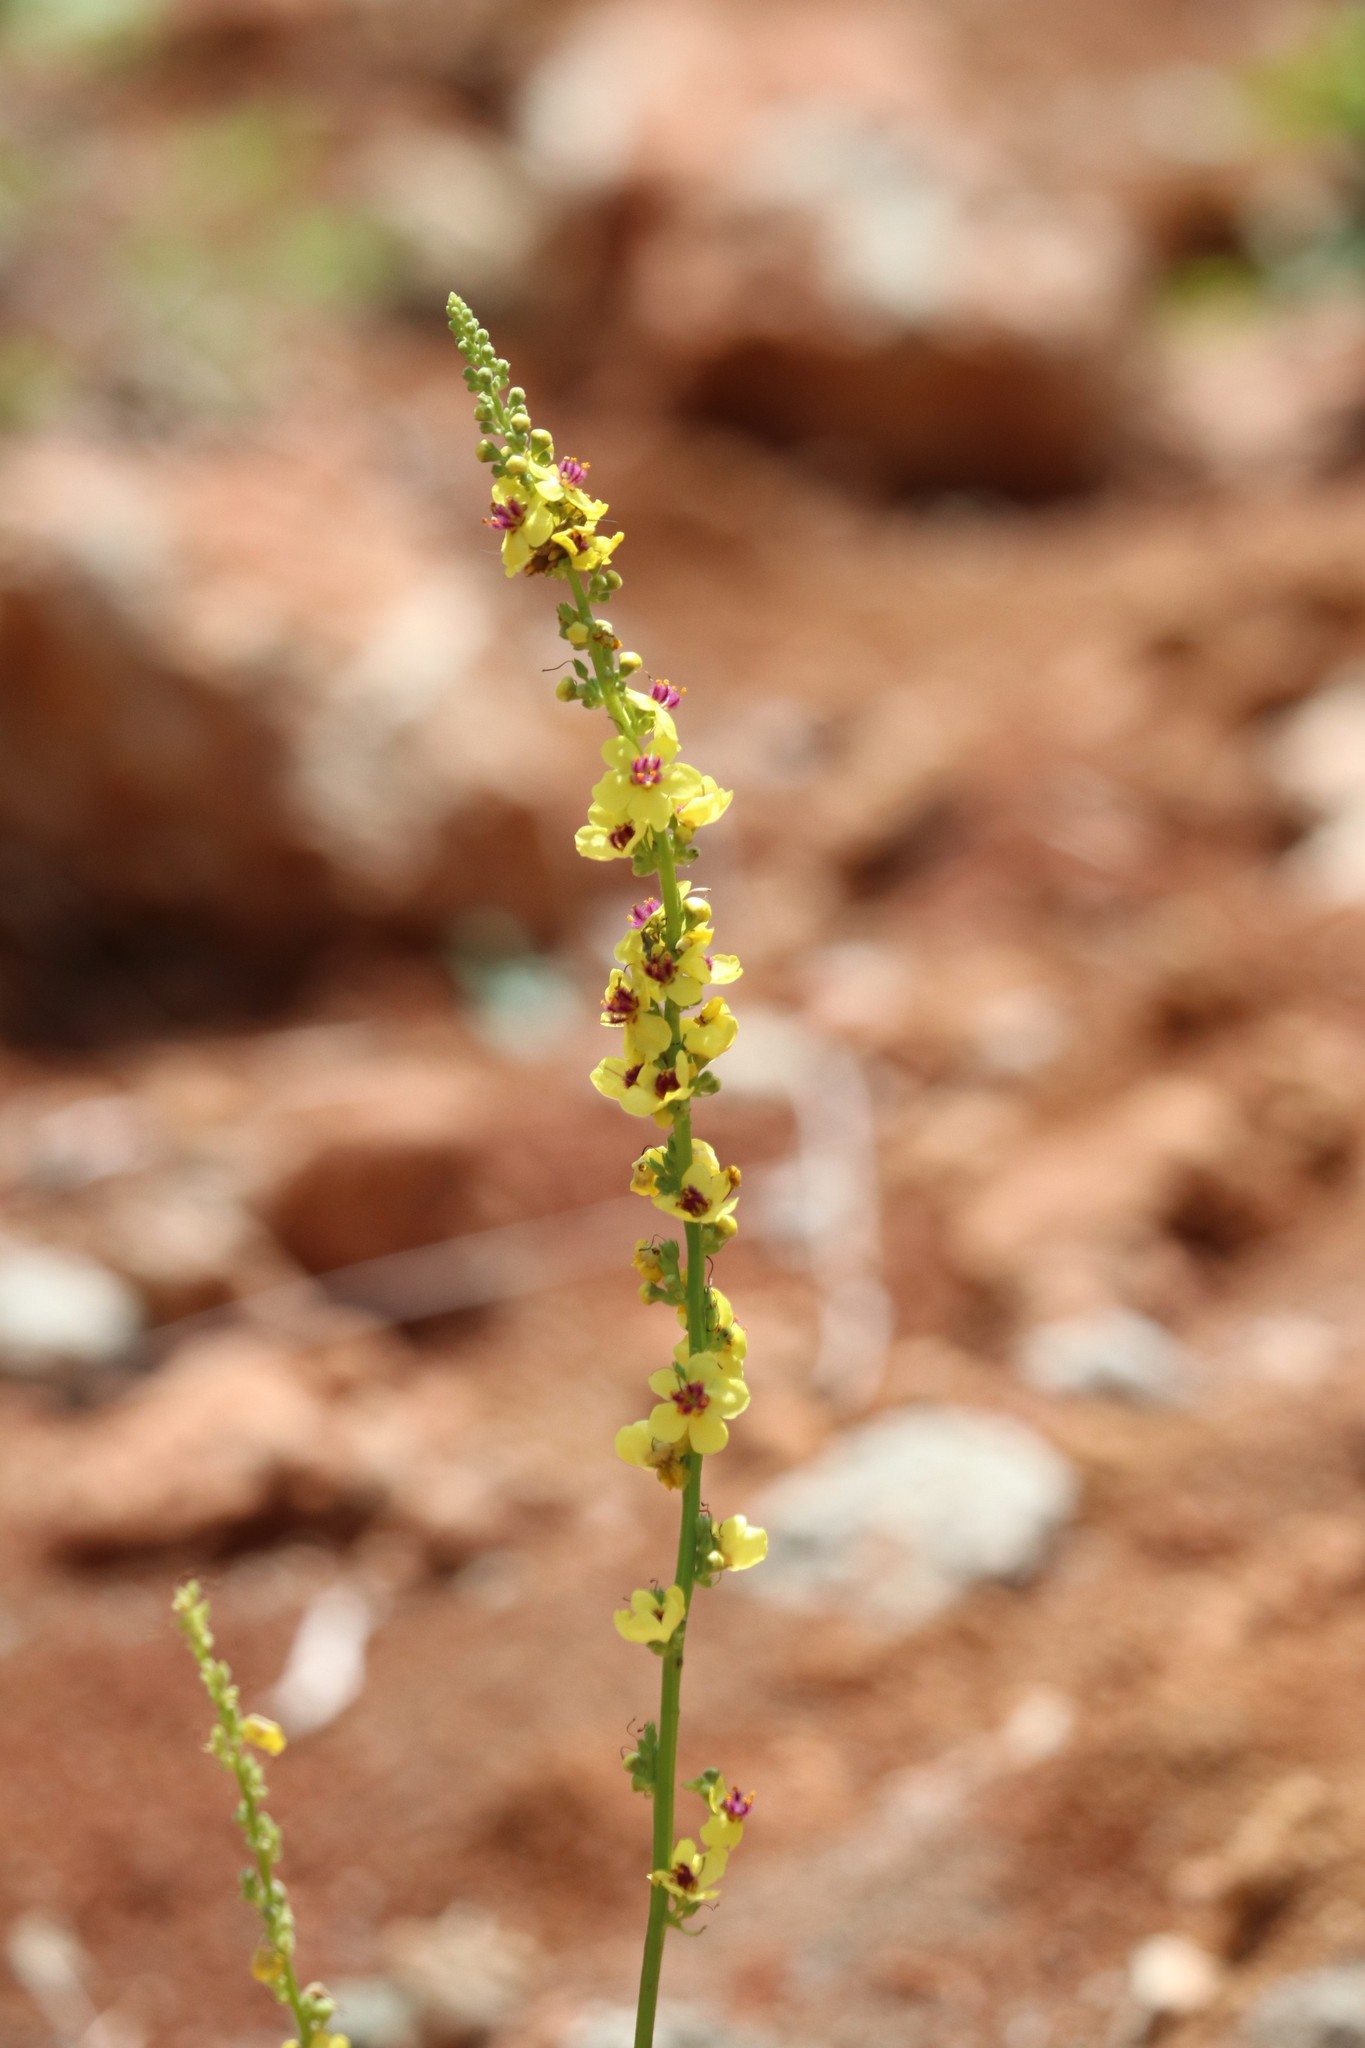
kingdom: Plantae
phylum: Tracheophyta
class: Magnoliopsida
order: Lamiales
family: Scrophulariaceae
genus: Verbascum
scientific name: Verbascum nigrum
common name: Dark mullein
